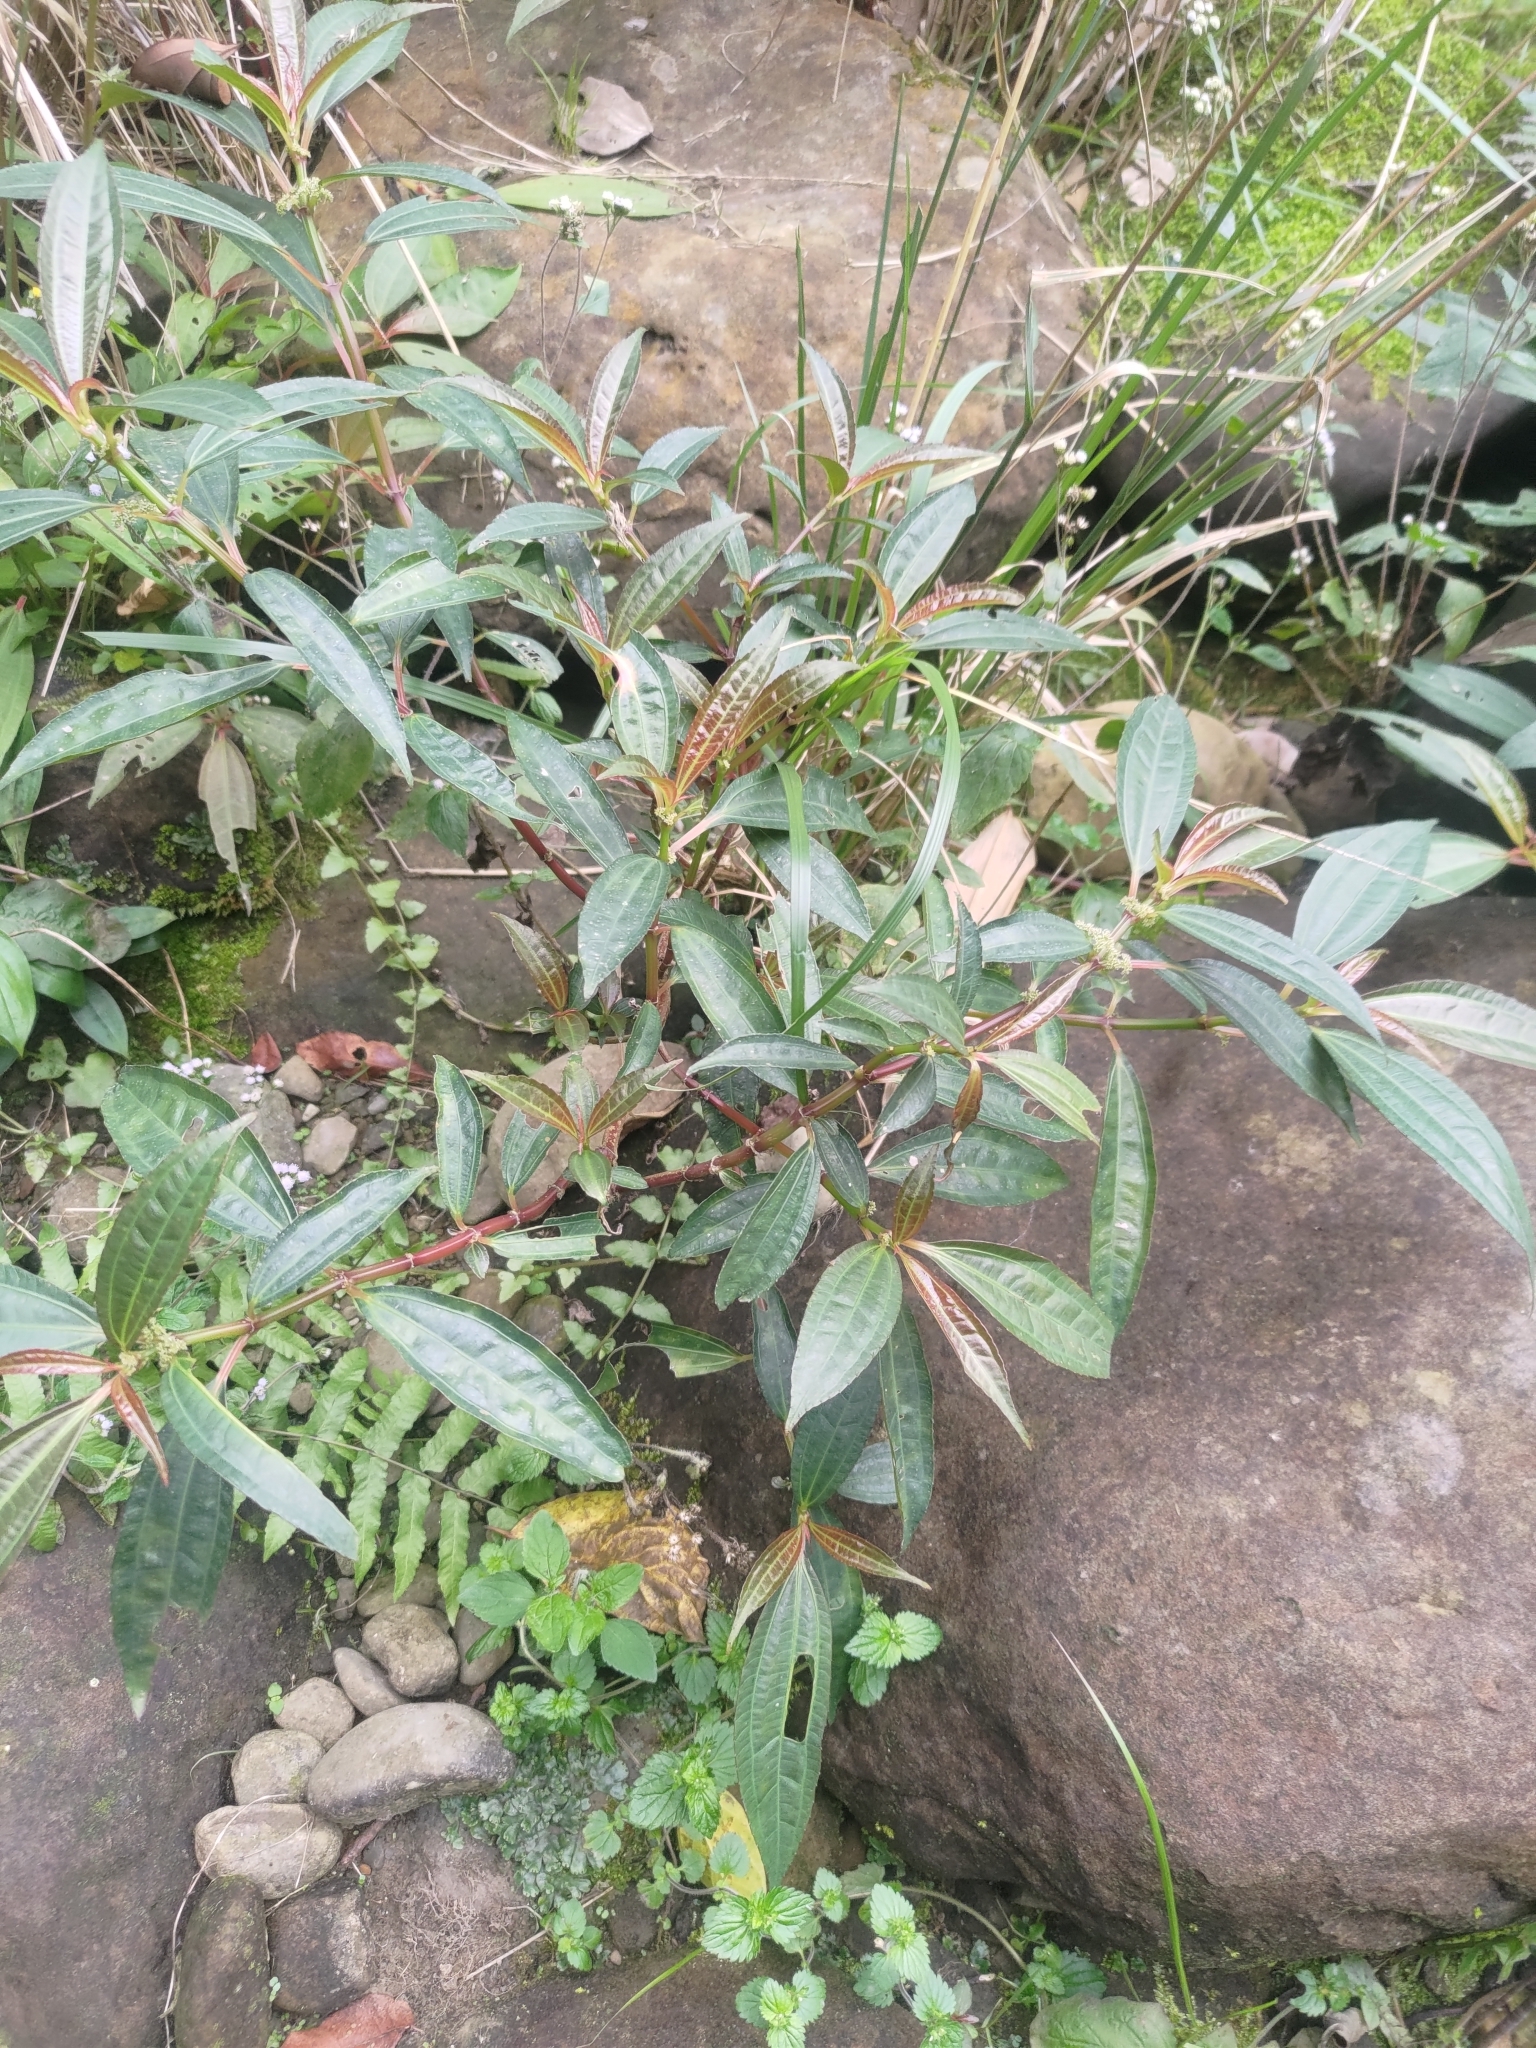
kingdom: Plantae
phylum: Tracheophyta
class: Magnoliopsida
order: Rosales
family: Urticaceae
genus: Pilea
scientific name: Pilea rotundinucula
